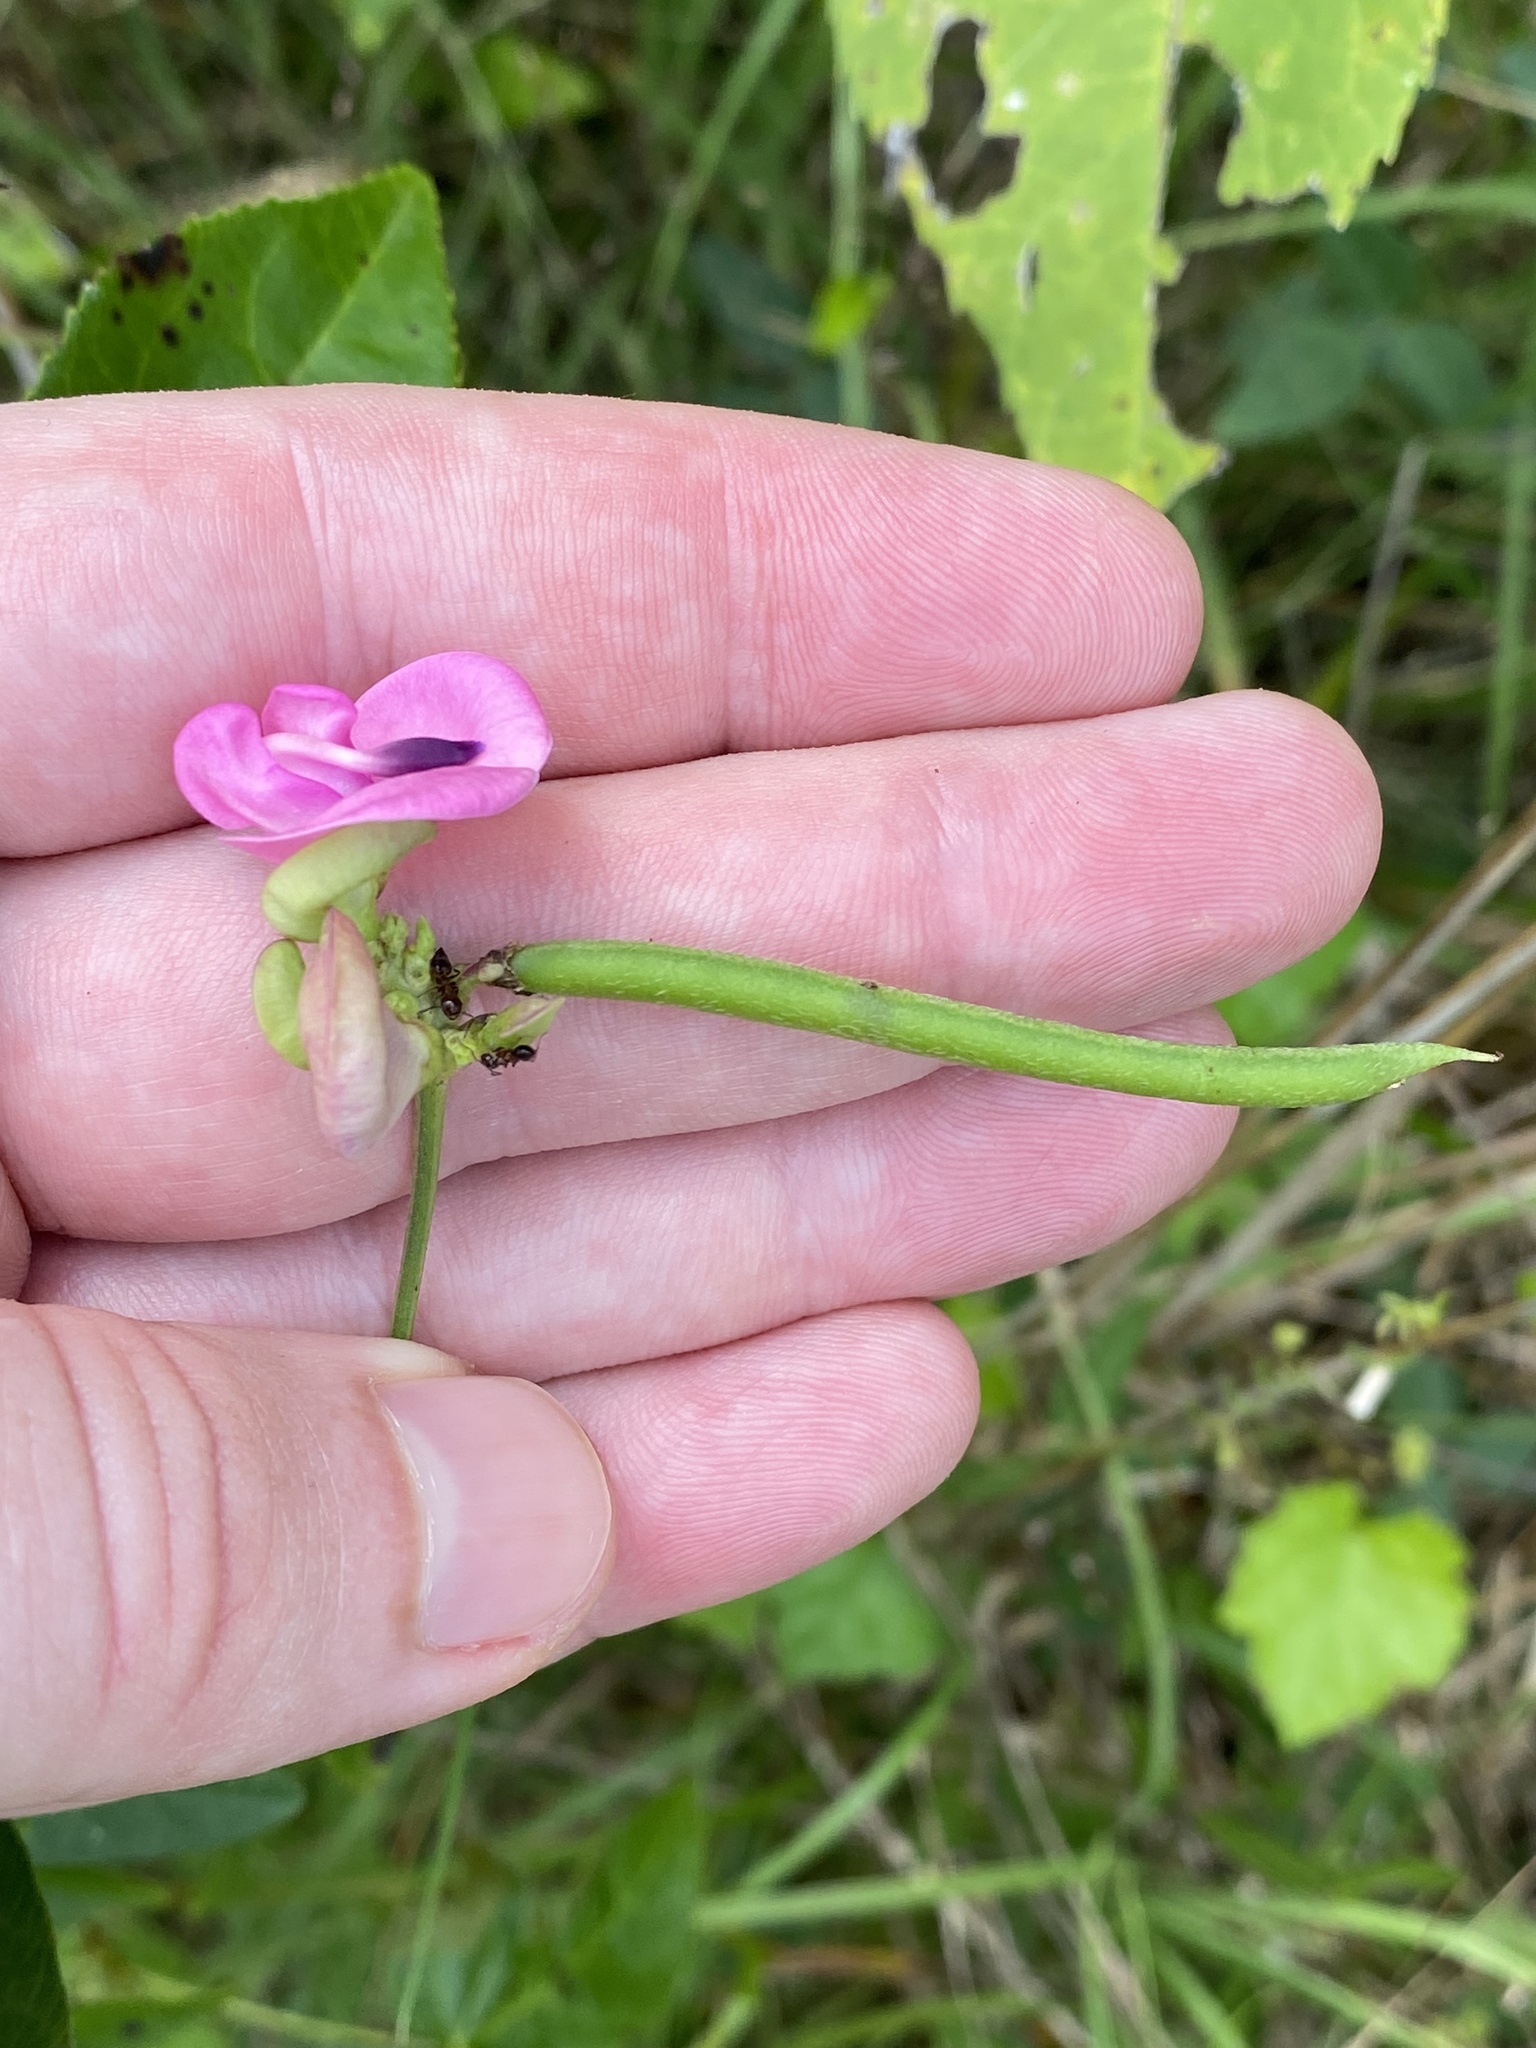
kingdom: Plantae
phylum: Tracheophyta
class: Magnoliopsida
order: Fabales
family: Fabaceae
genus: Strophostyles
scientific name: Strophostyles umbellata
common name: Perennial wild bean
